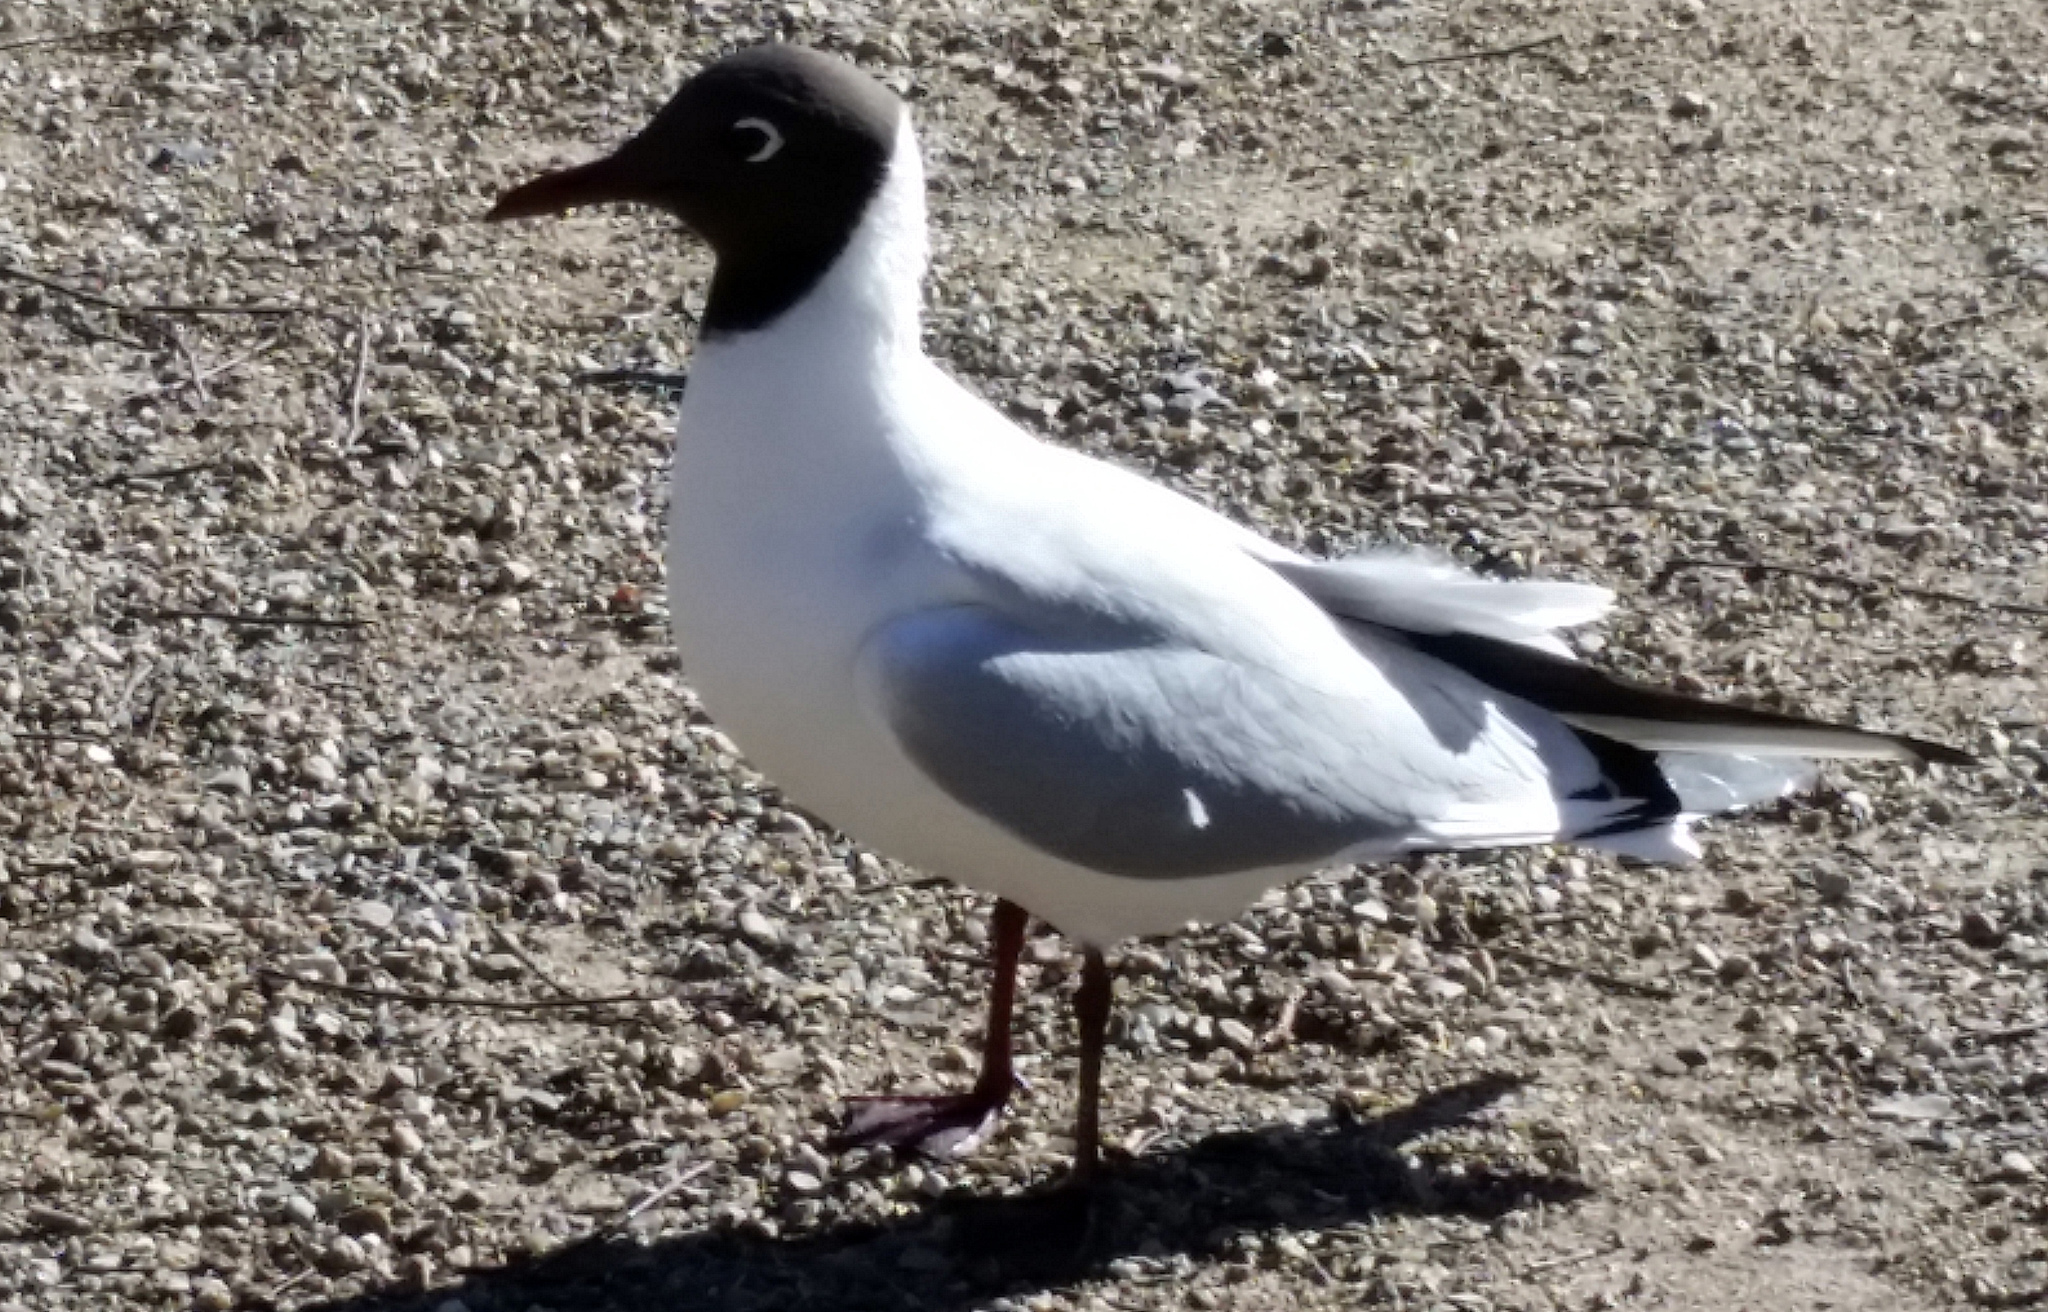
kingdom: Animalia
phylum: Chordata
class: Aves
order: Charadriiformes
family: Laridae
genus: Chroicocephalus
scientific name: Chroicocephalus ridibundus
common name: Black-headed gull
